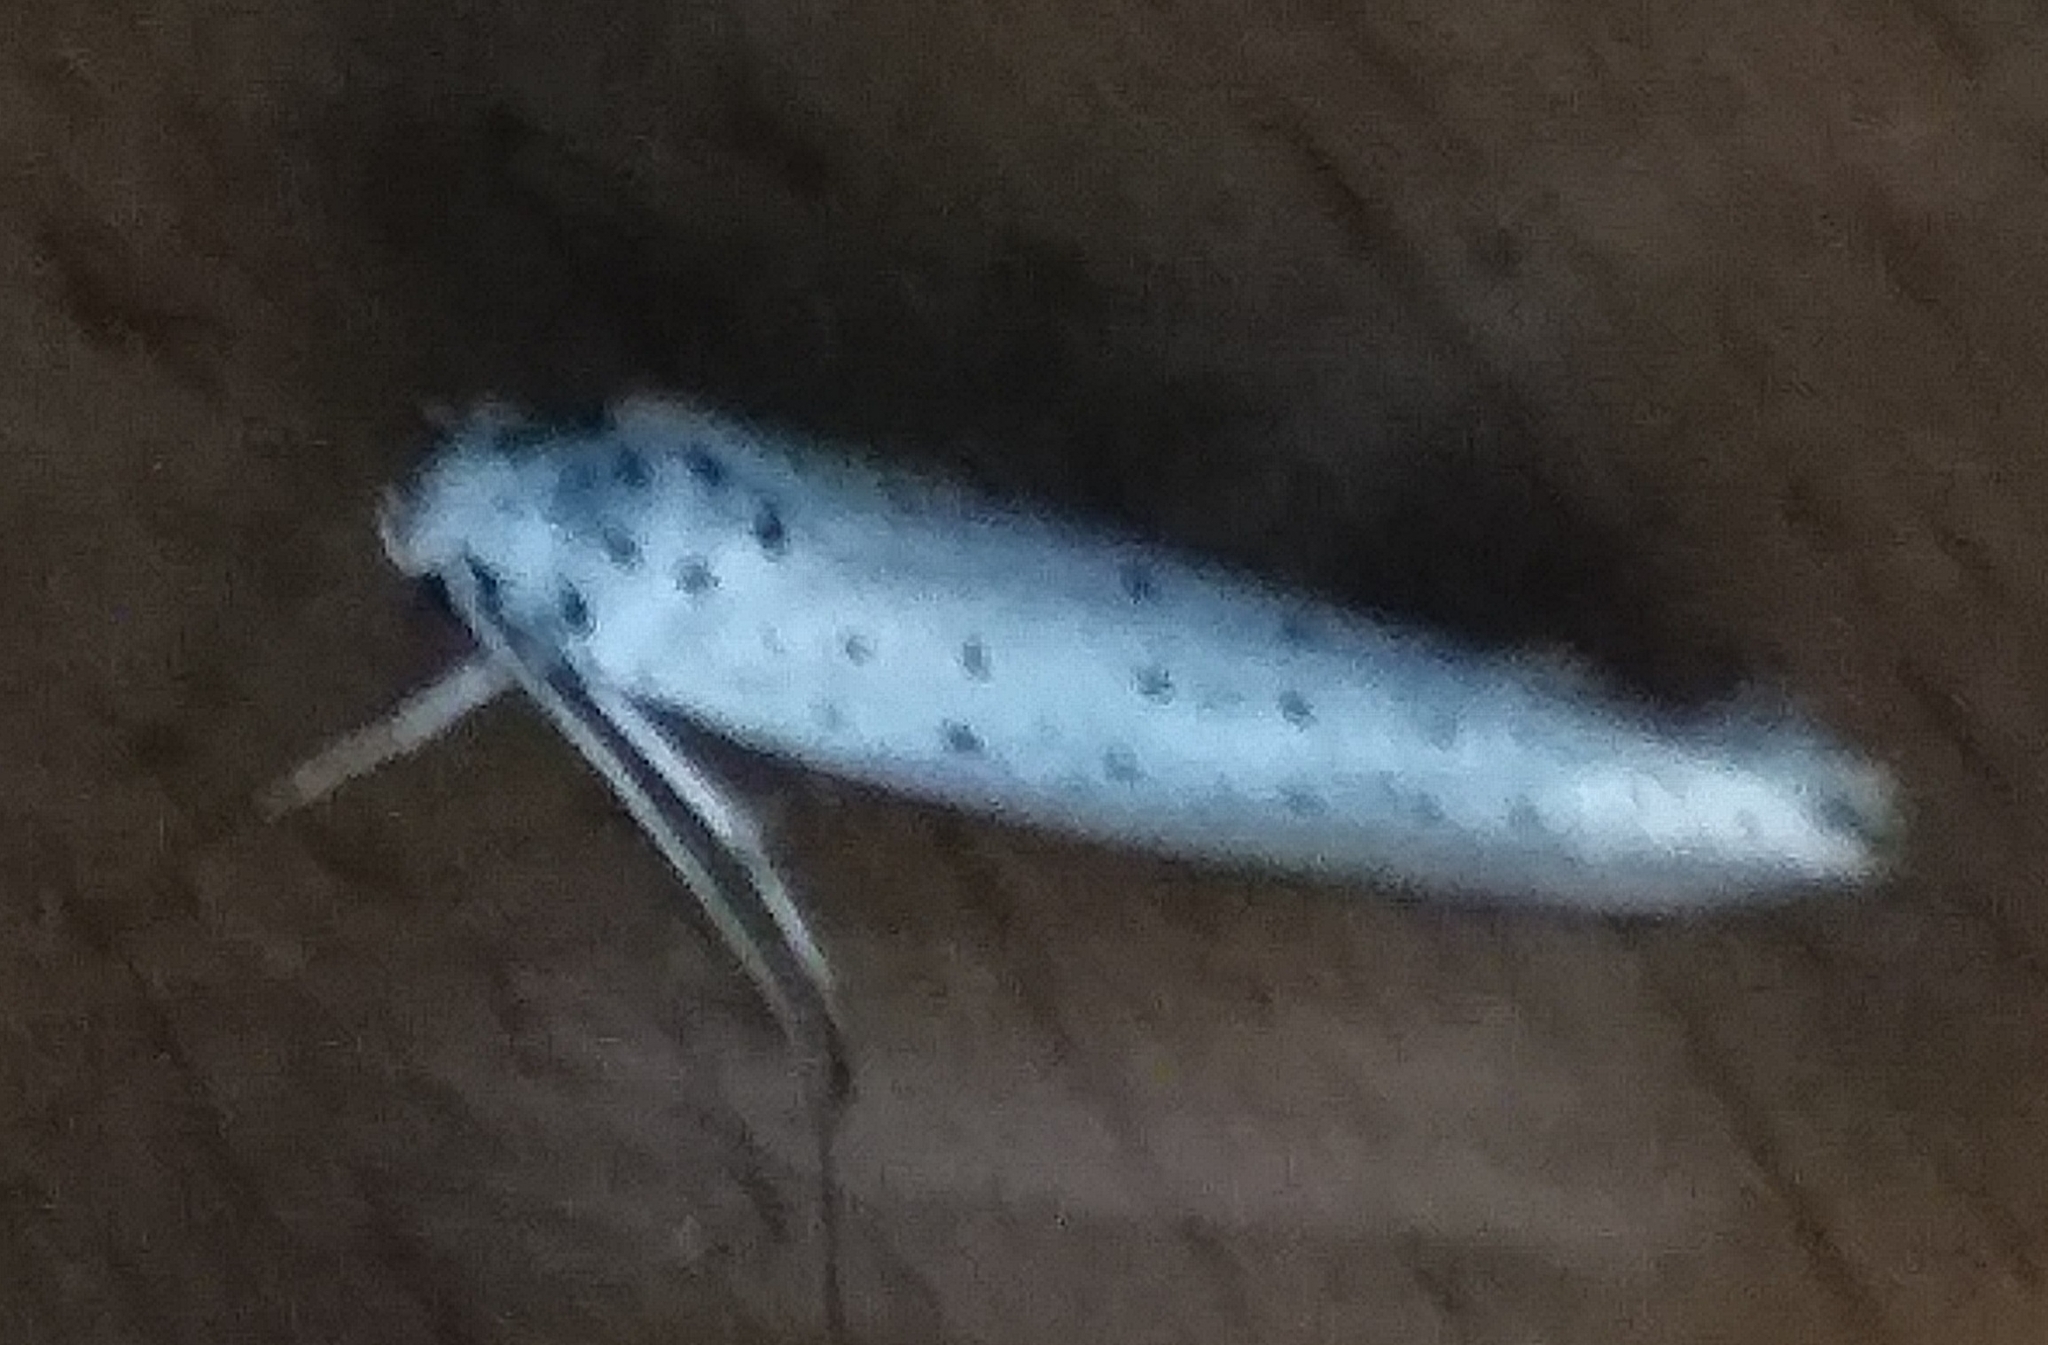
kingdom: Animalia
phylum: Arthropoda
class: Insecta
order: Lepidoptera
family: Yponomeutidae
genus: Yponomeuta
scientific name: Yponomeuta
